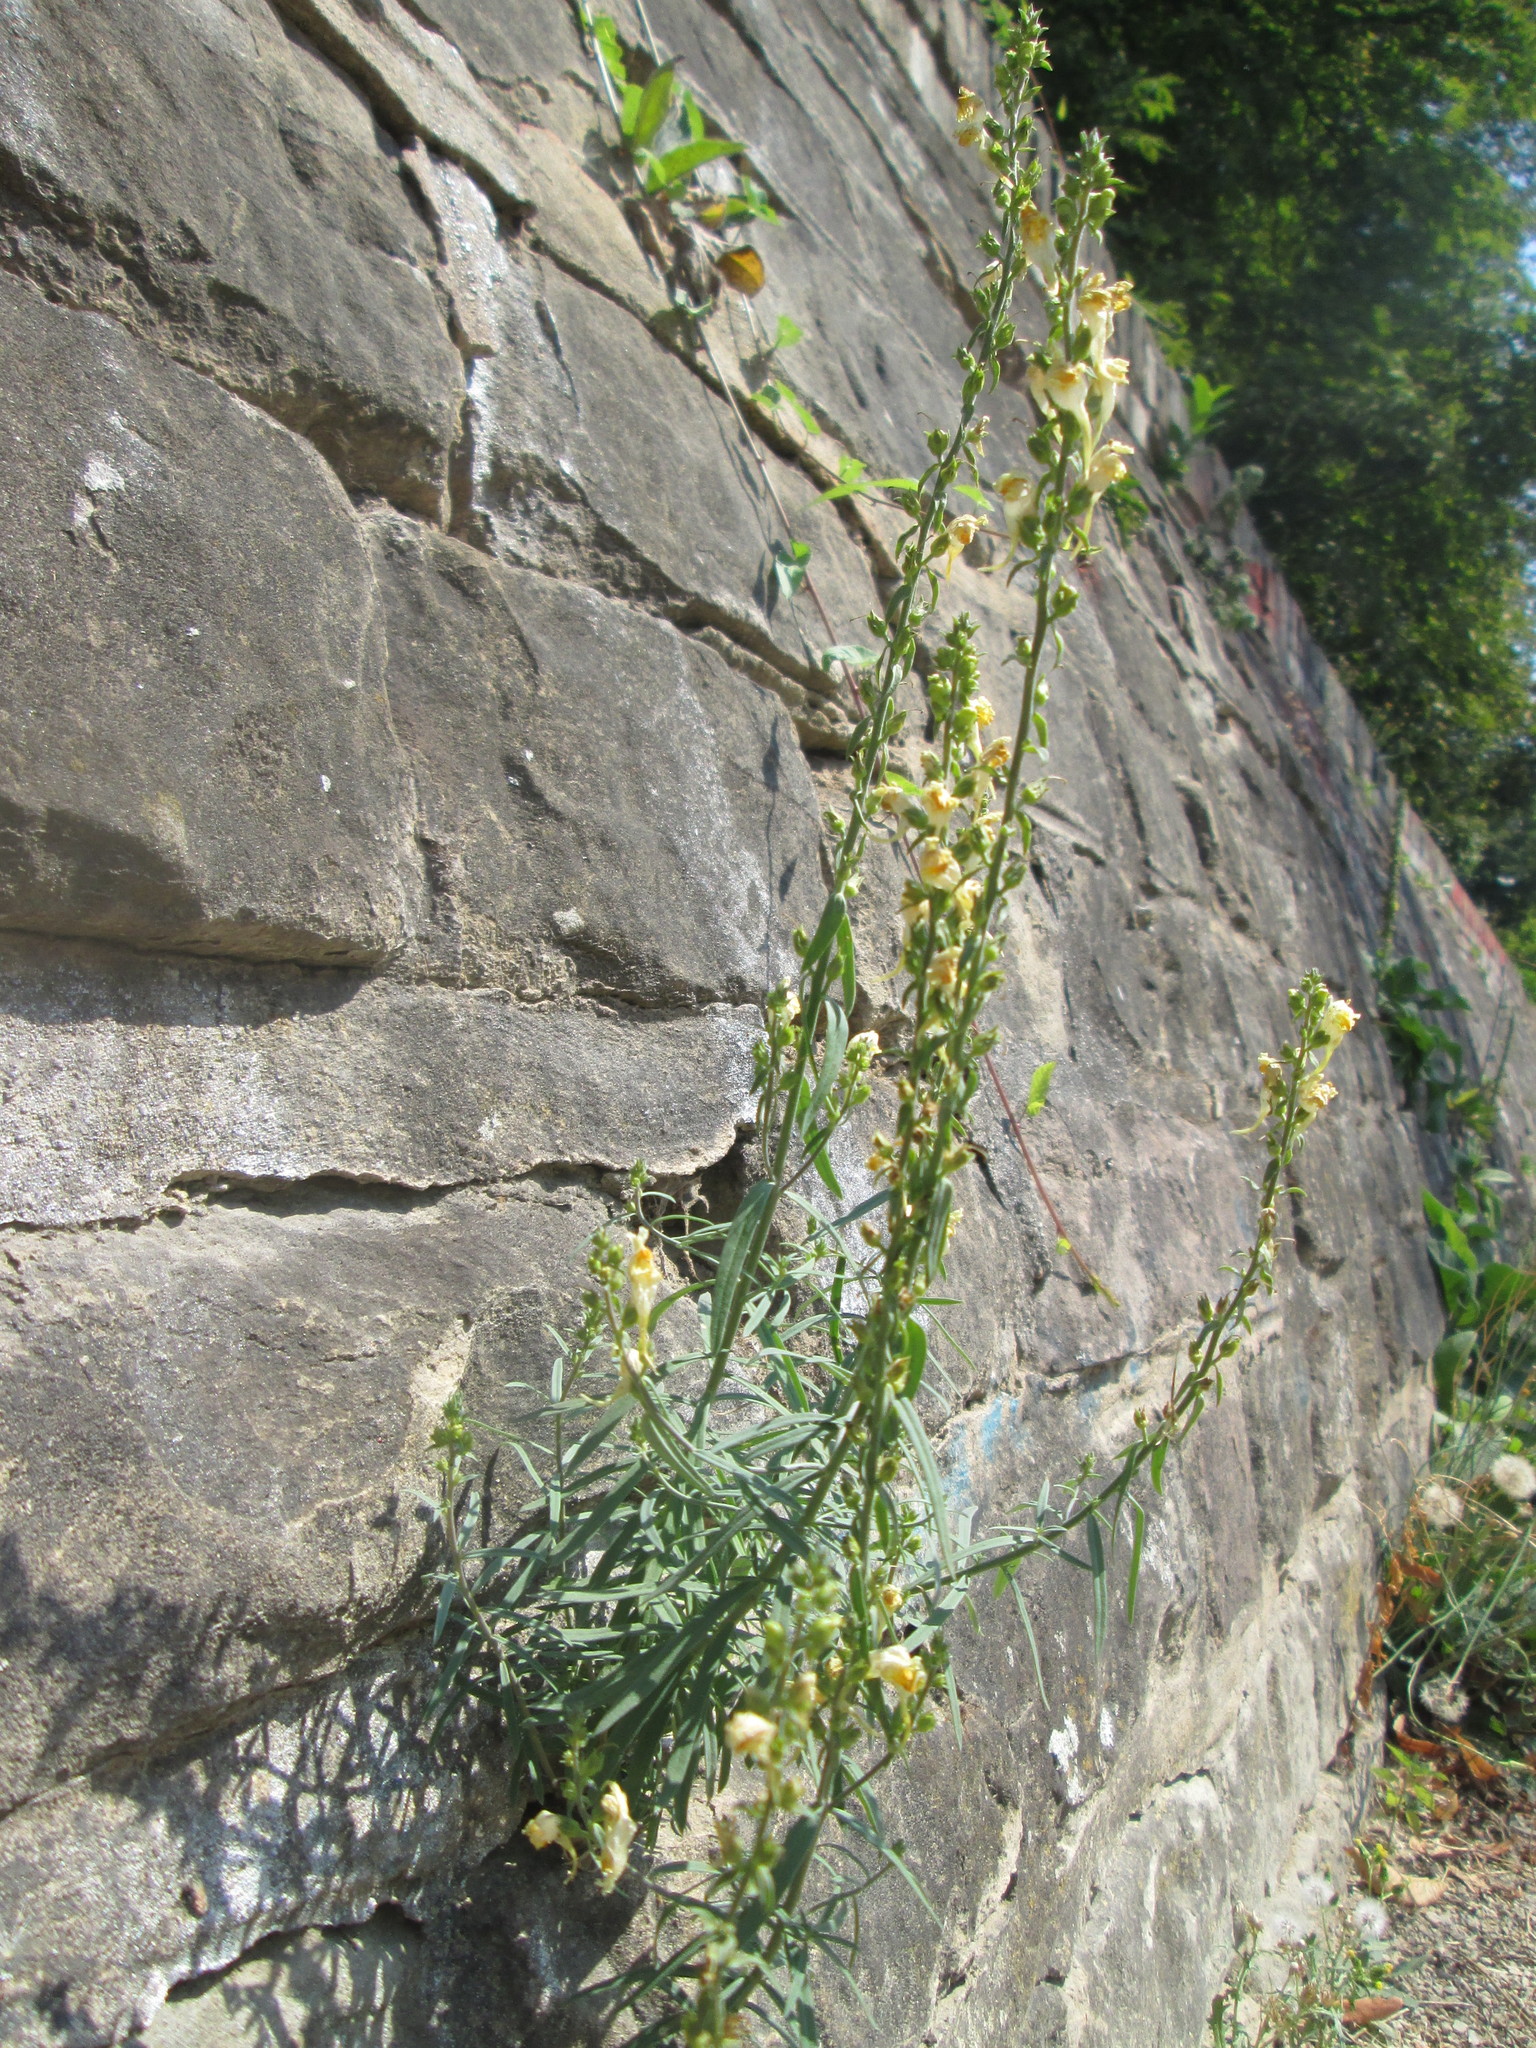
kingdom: Plantae
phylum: Tracheophyta
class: Magnoliopsida
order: Lamiales
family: Plantaginaceae
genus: Linaria
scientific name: Linaria vulgaris
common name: Butter and eggs
